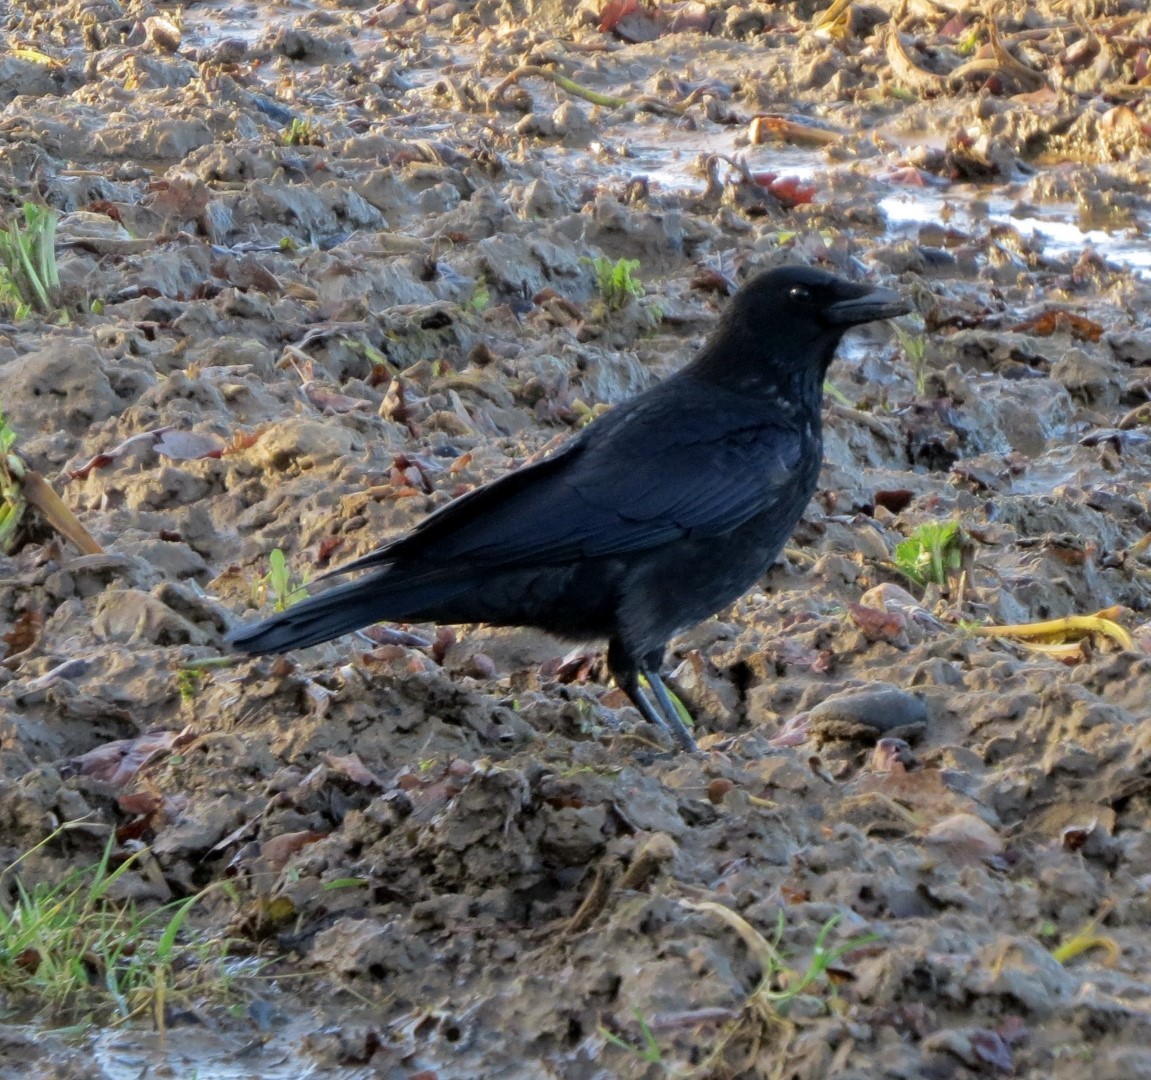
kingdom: Animalia
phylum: Chordata
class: Aves
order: Passeriformes
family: Corvidae
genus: Corvus
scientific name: Corvus corone
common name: Carrion crow
